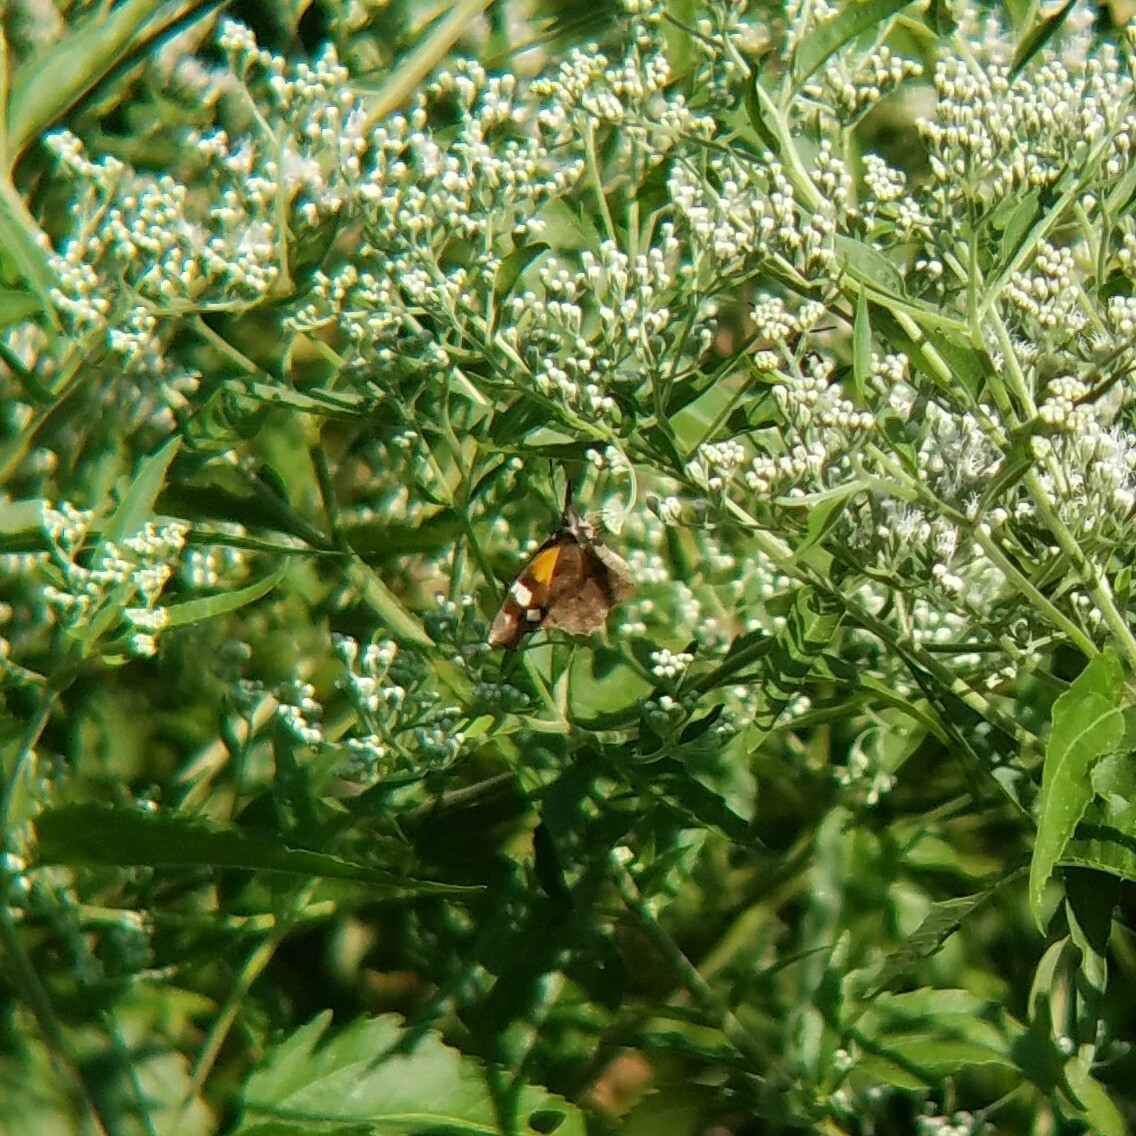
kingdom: Animalia
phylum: Arthropoda
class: Insecta
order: Lepidoptera
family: Nymphalidae
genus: Libytheana
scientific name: Libytheana carinenta
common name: American snout
